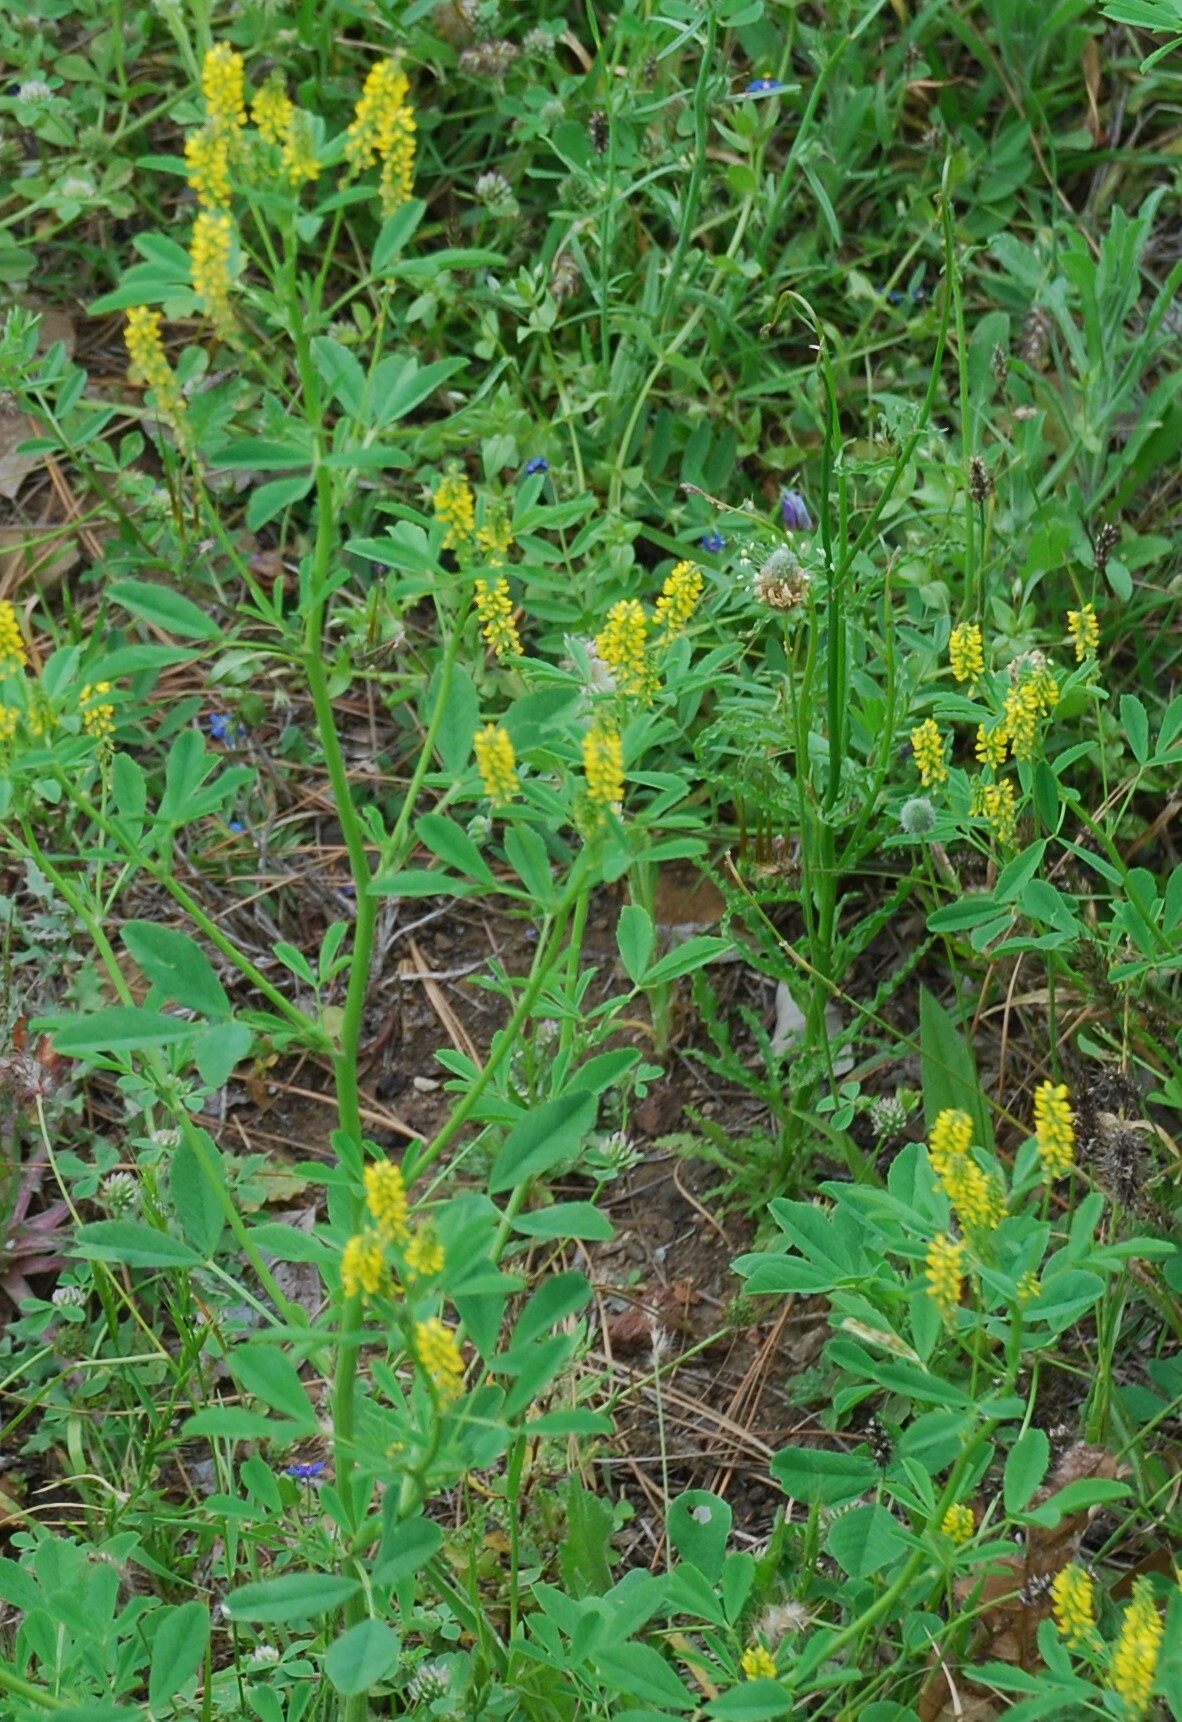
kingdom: Plantae
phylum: Tracheophyta
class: Magnoliopsida
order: Fabales
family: Fabaceae
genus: Melilotus
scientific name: Melilotus indicus
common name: Small melilot
